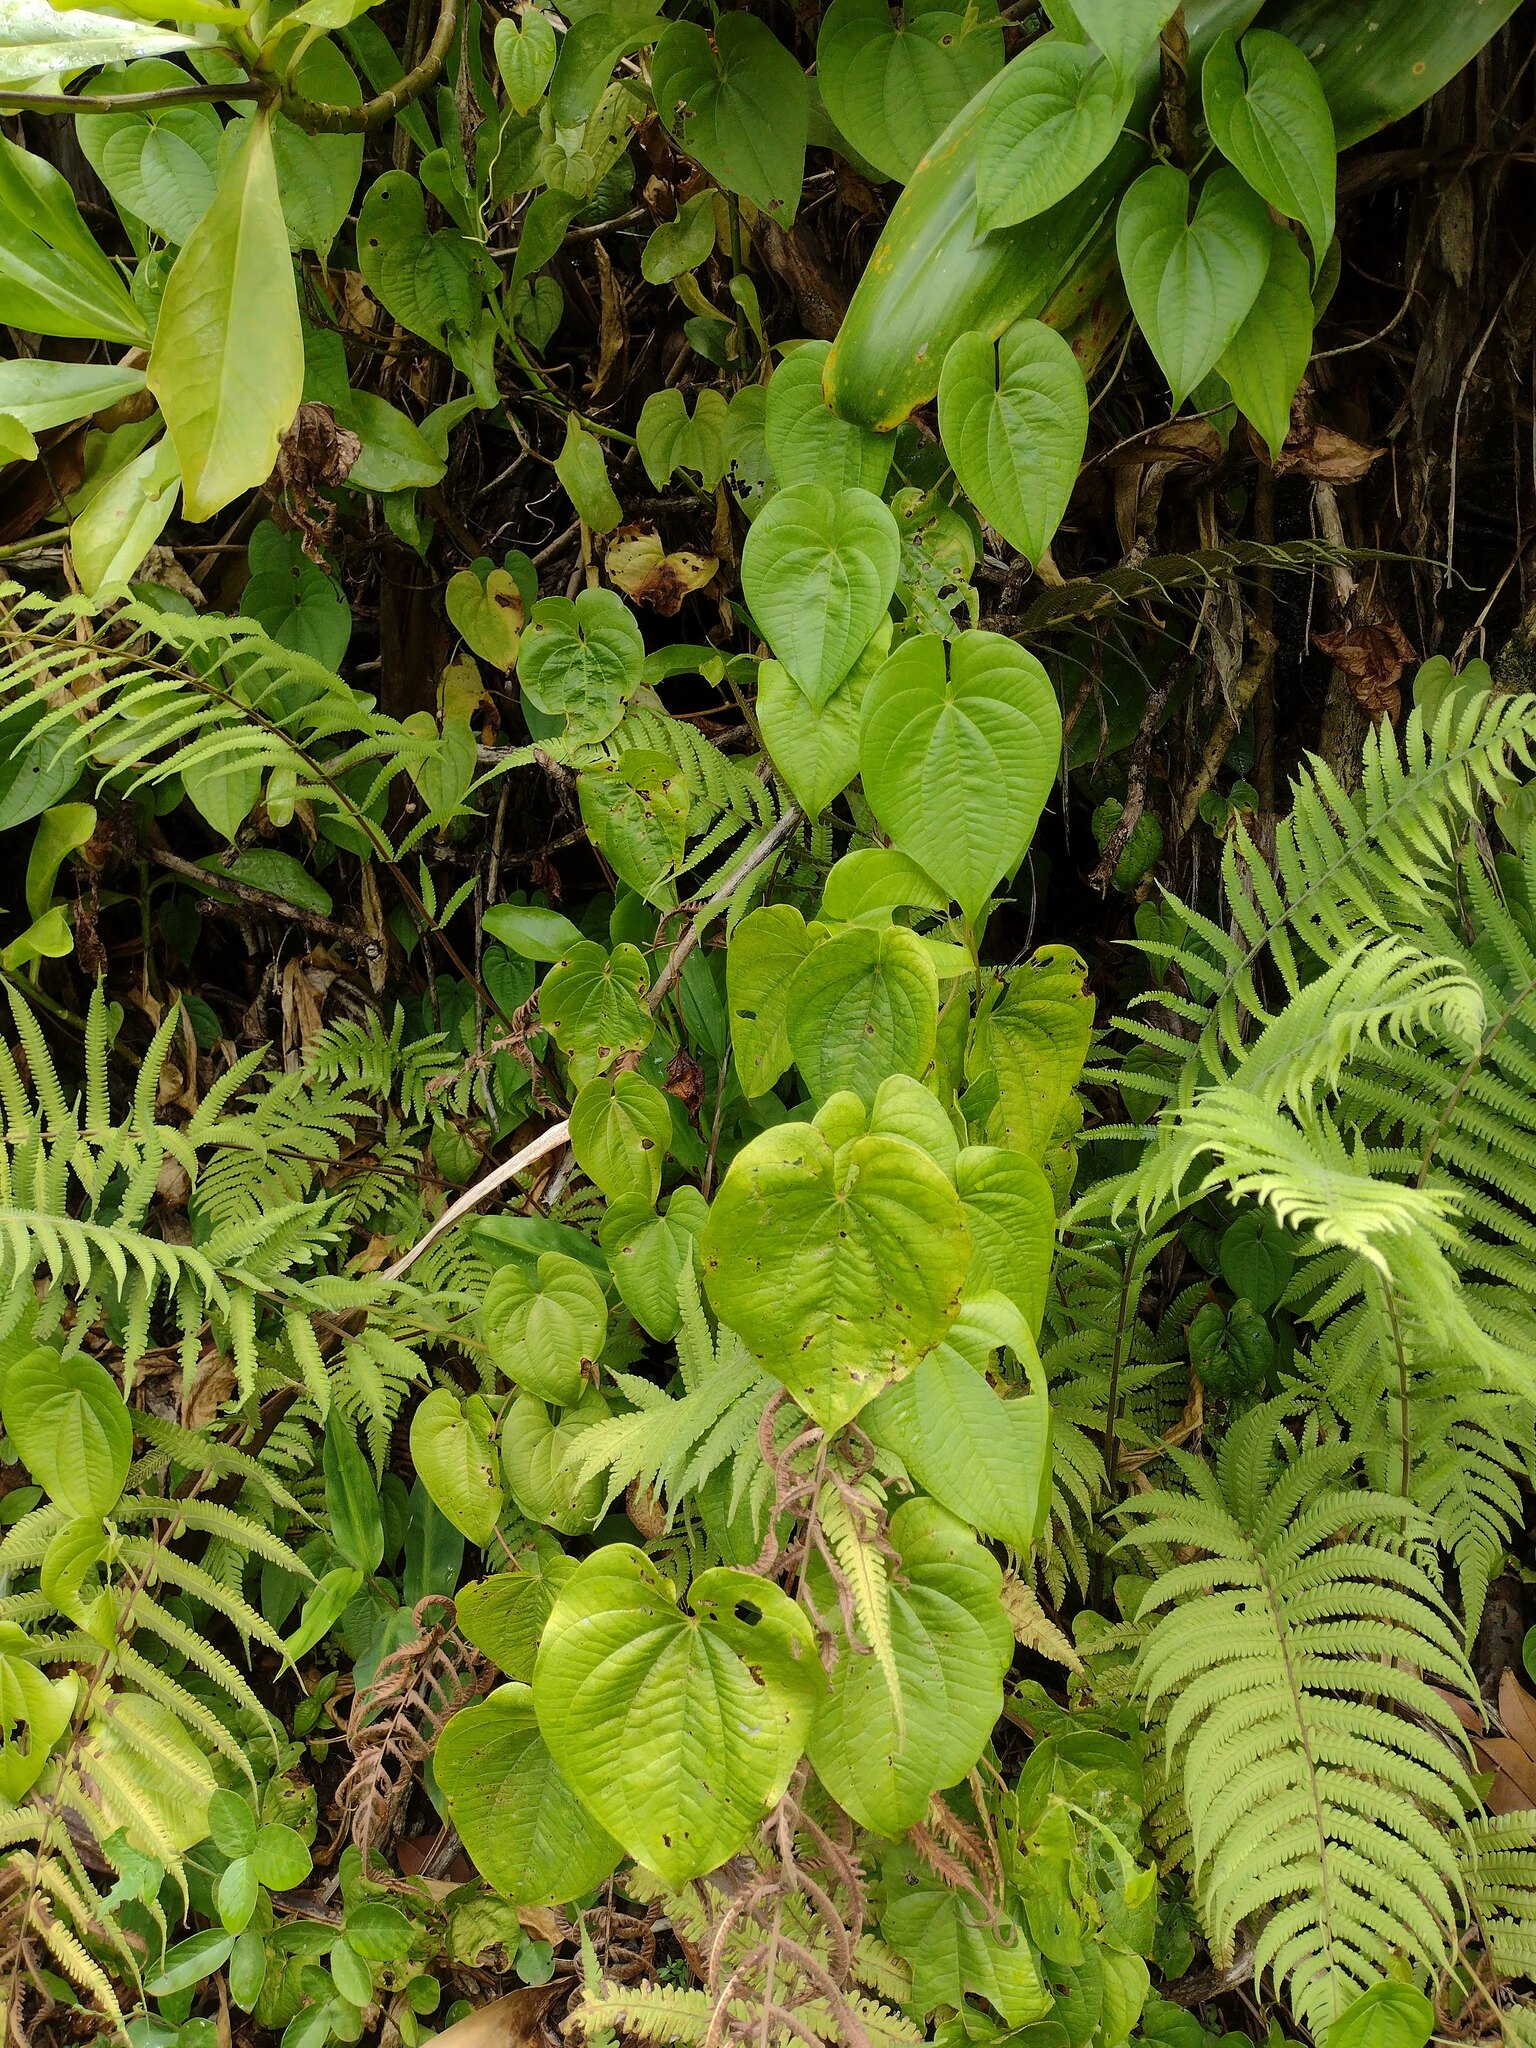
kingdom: Plantae
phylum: Tracheophyta
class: Liliopsida
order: Dioscoreales
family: Dioscoreaceae
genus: Dioscorea
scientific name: Dioscorea bulbifera
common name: Air yam
